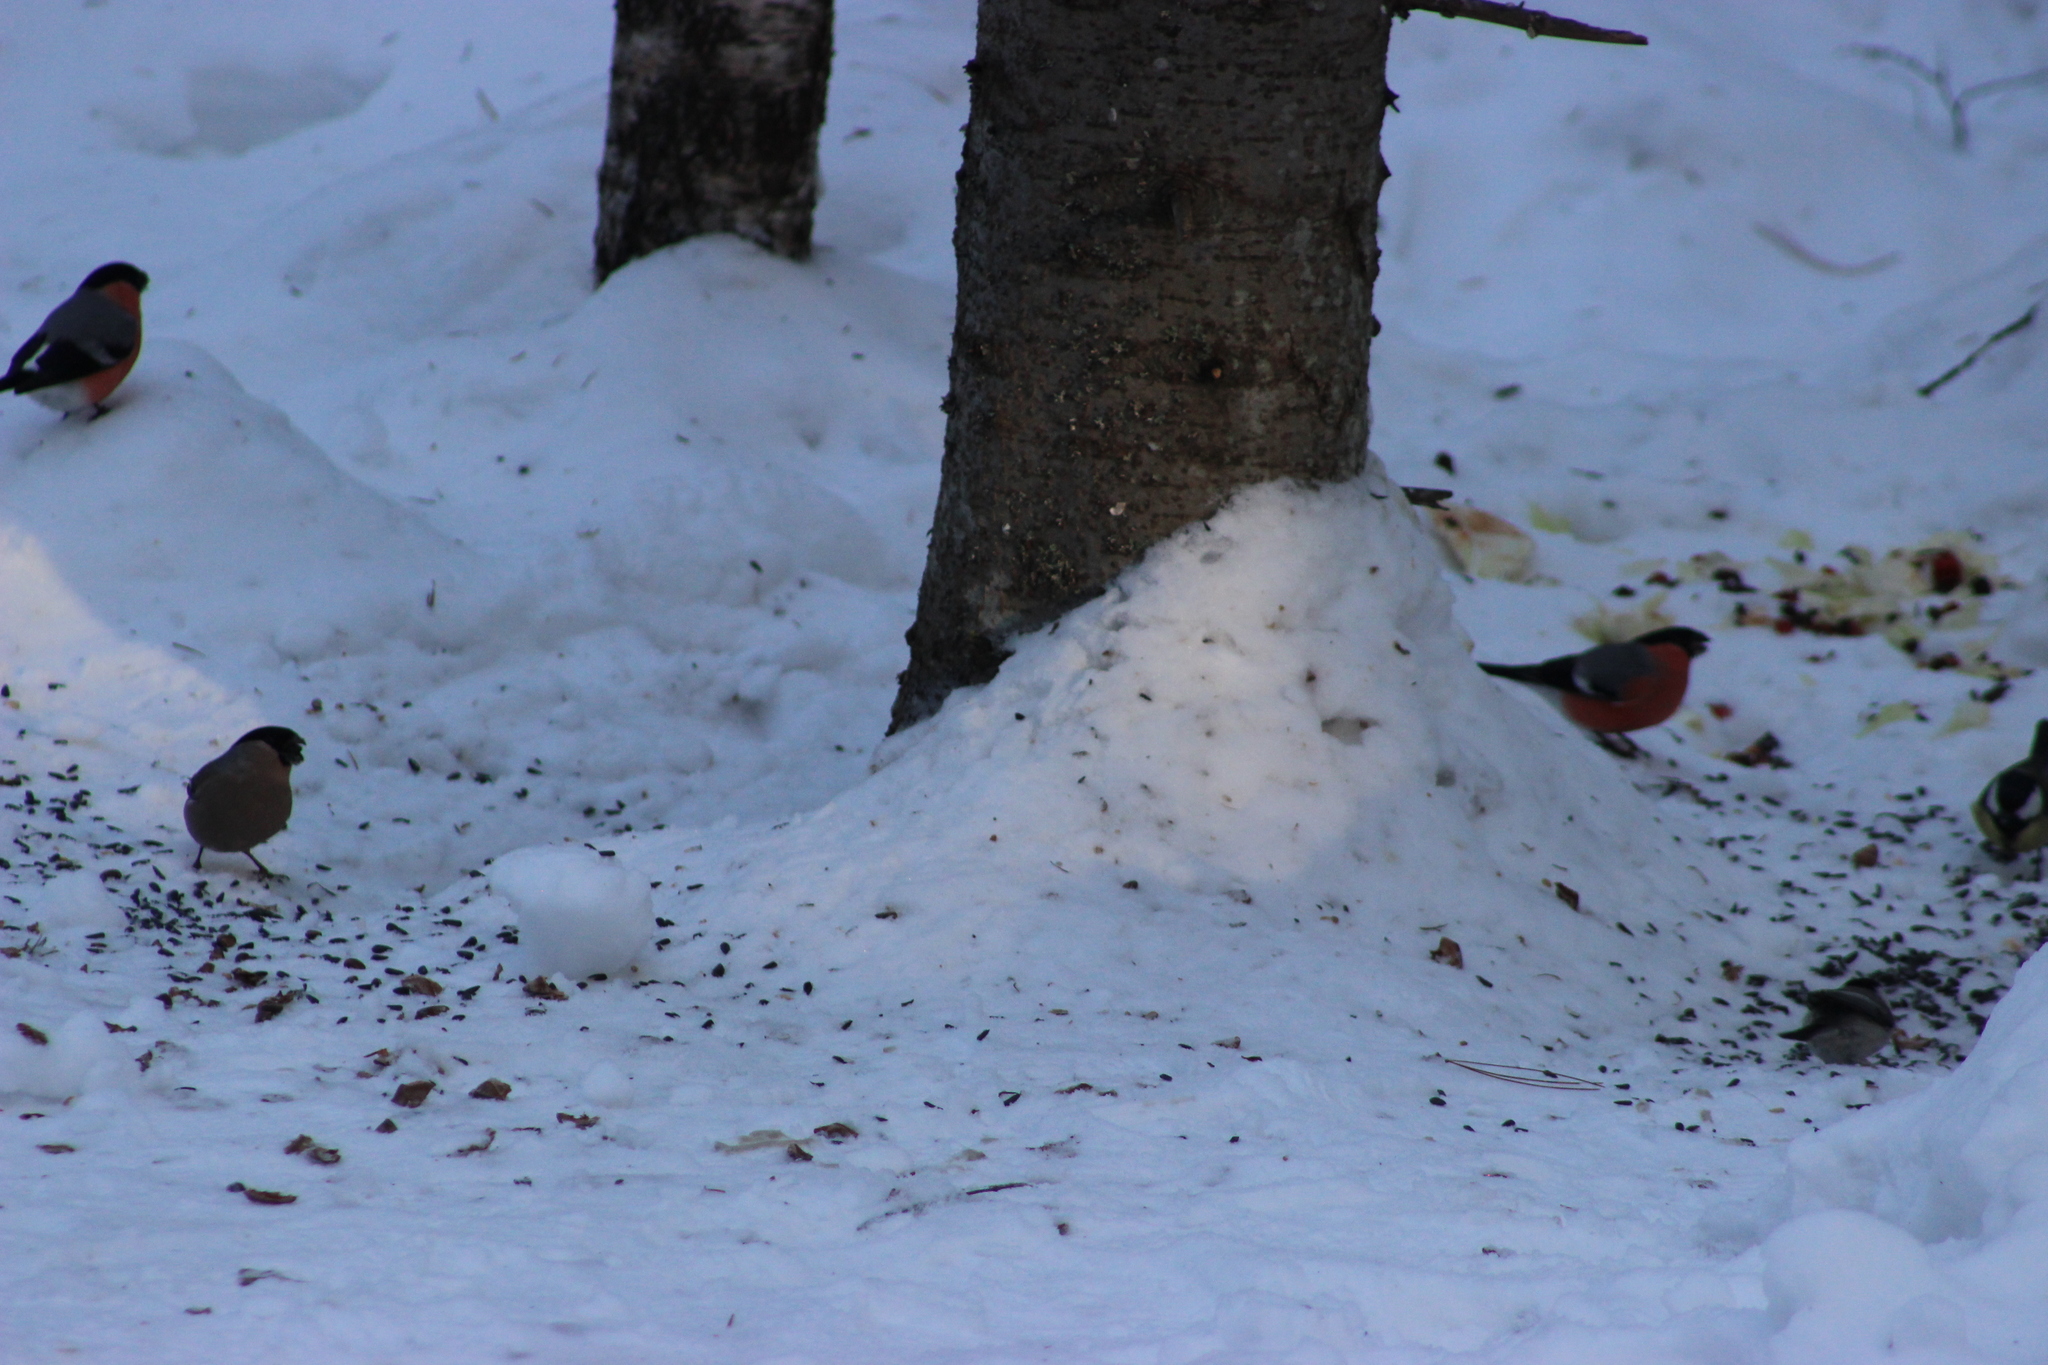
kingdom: Animalia
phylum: Chordata
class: Aves
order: Passeriformes
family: Fringillidae
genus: Pyrrhula
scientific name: Pyrrhula pyrrhula
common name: Eurasian bullfinch
